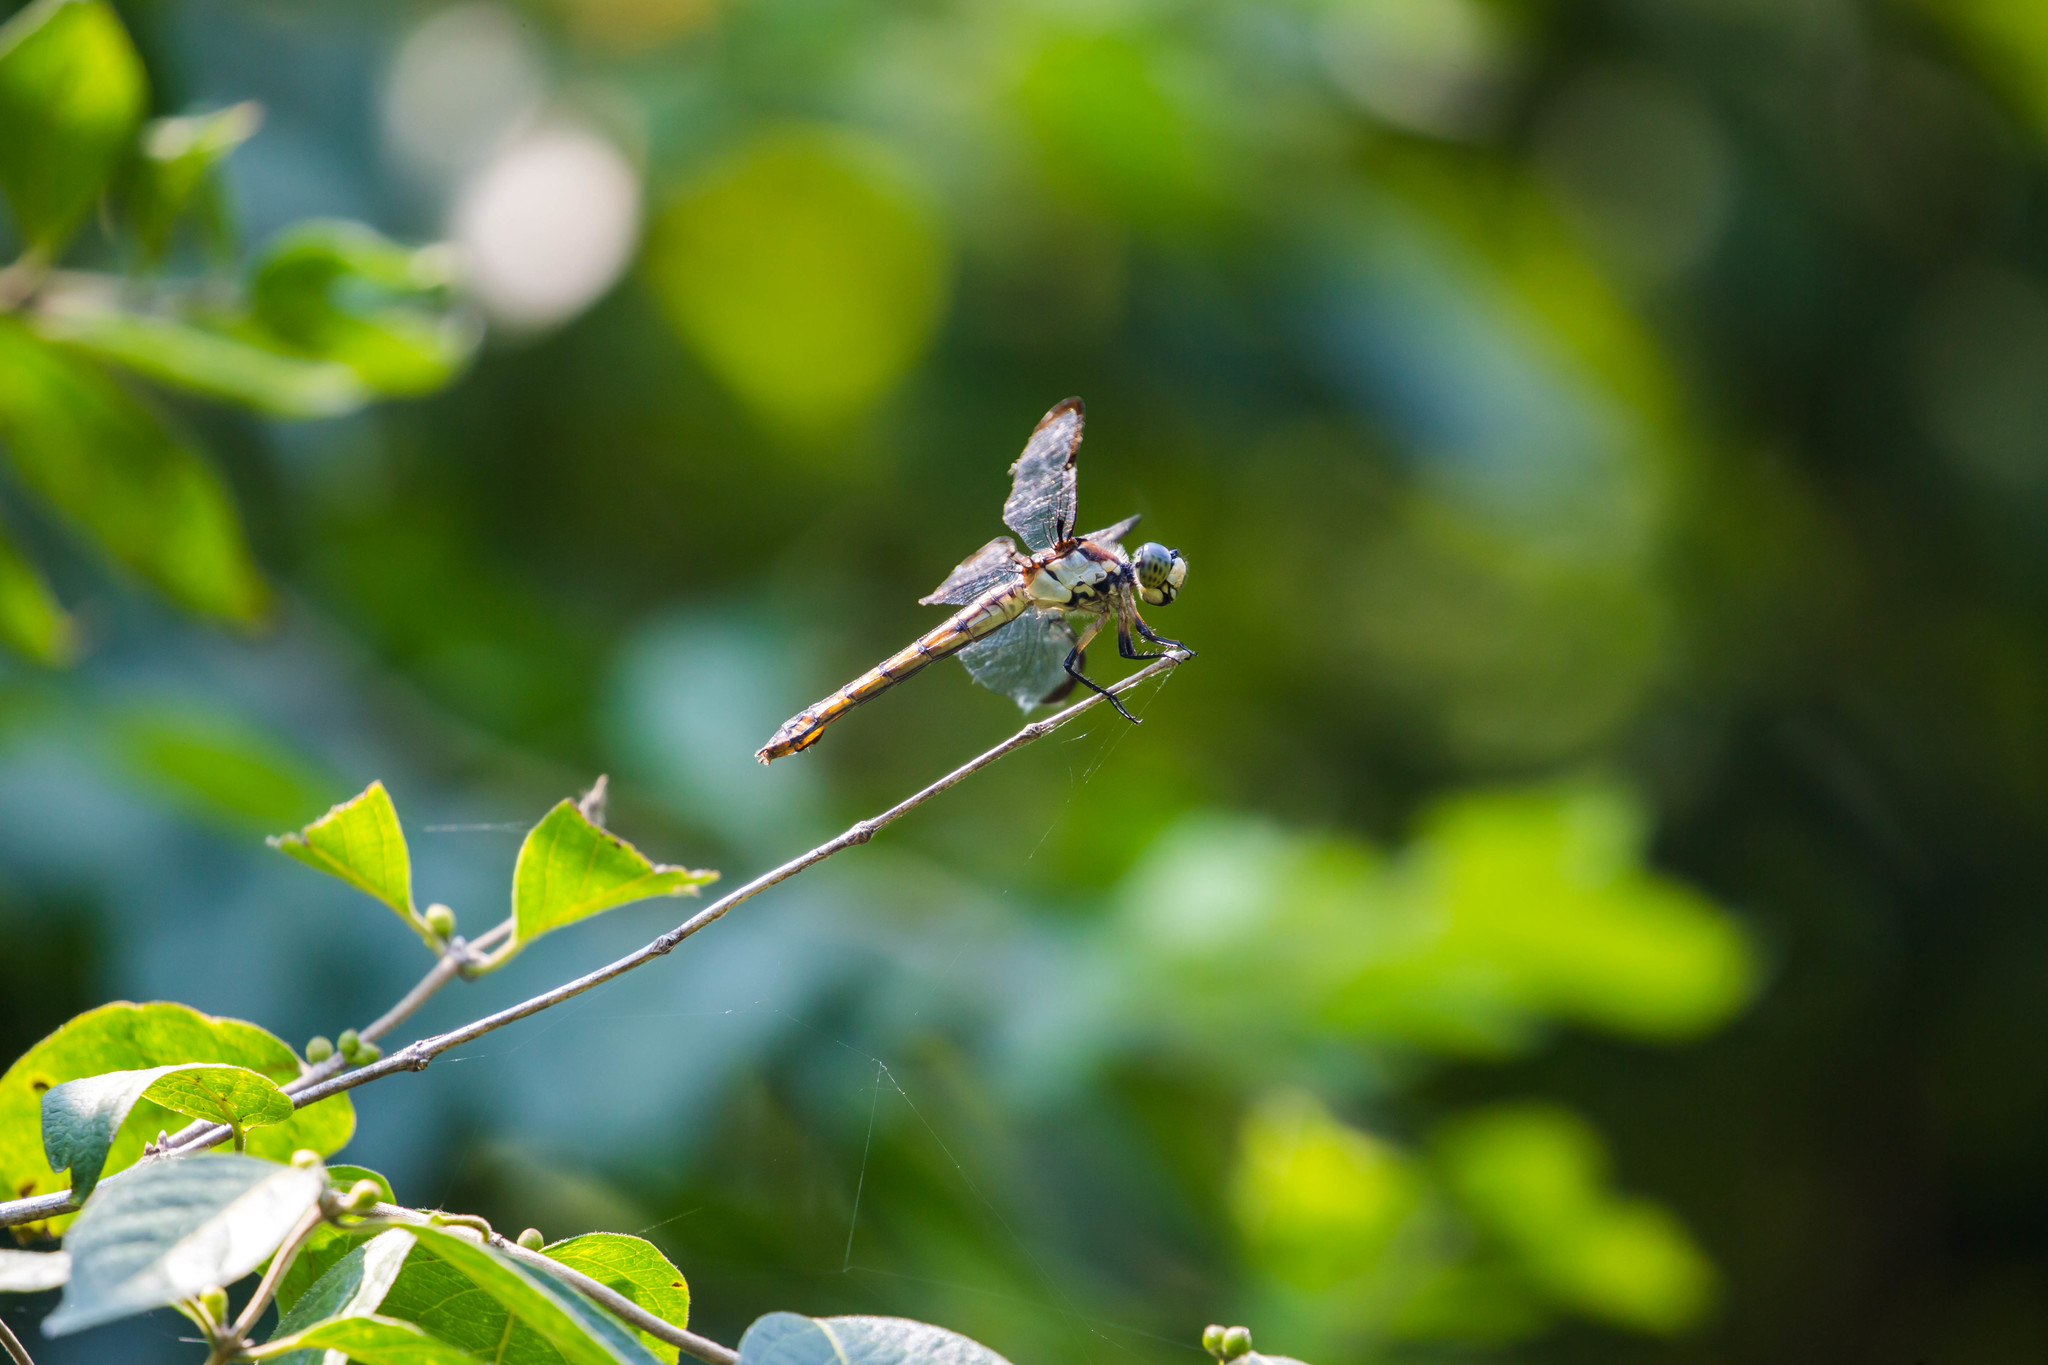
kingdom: Animalia
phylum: Arthropoda
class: Insecta
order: Odonata
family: Libellulidae
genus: Libellula
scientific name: Libellula vibrans
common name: Great blue skimmer
